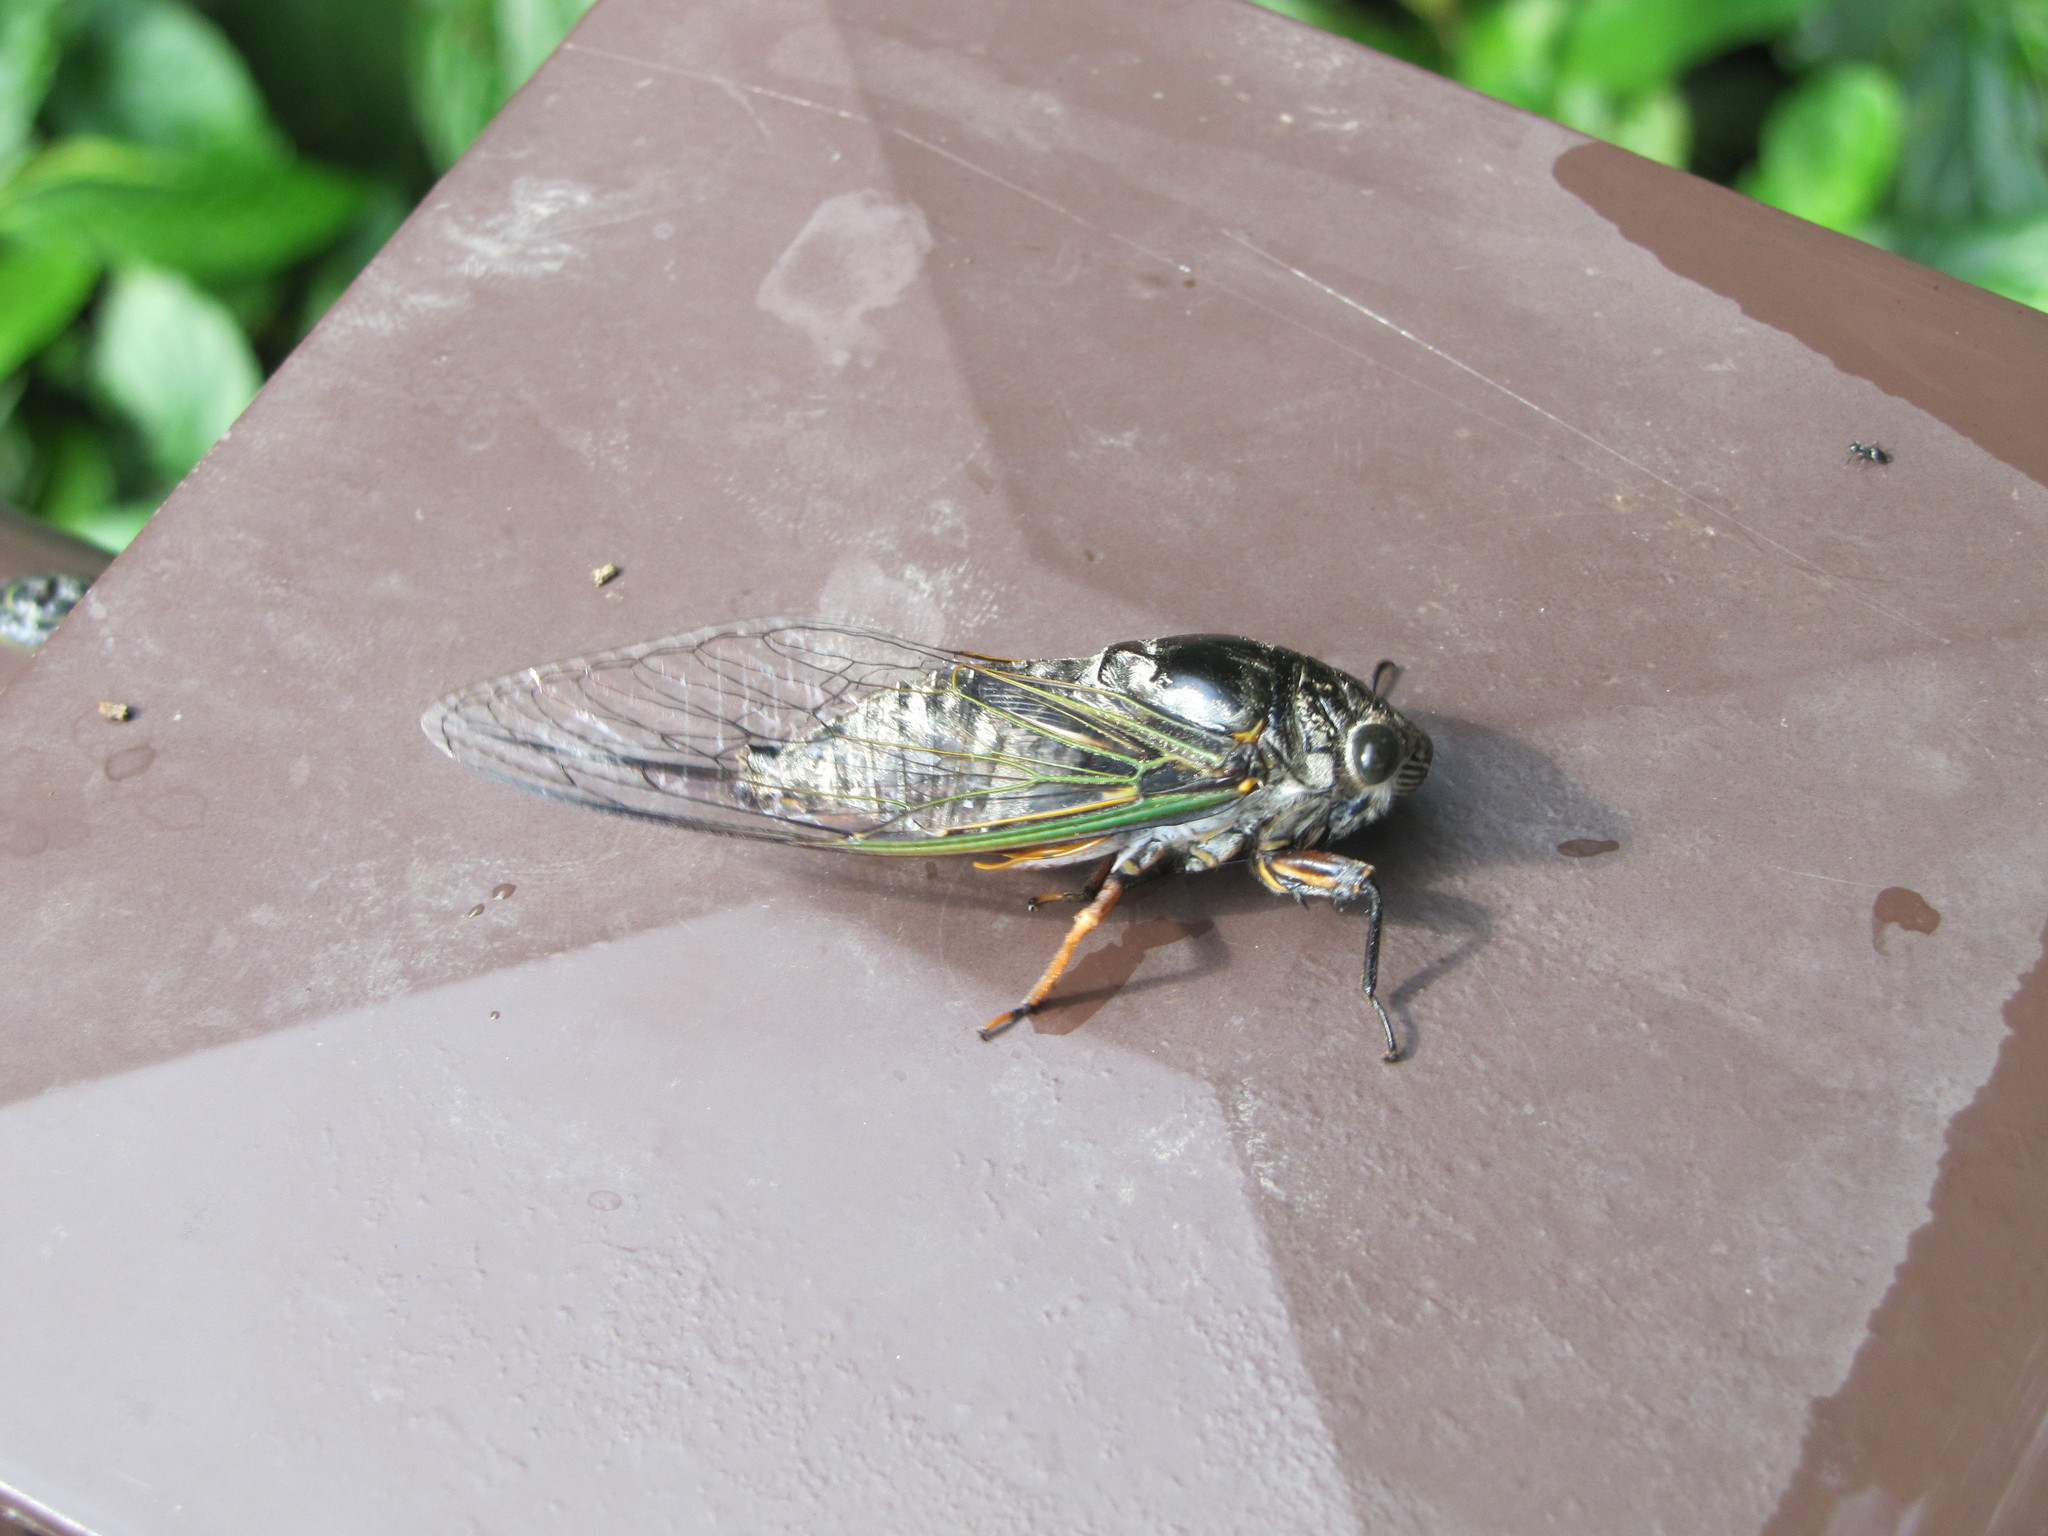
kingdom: Animalia
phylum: Arthropoda
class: Insecta
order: Hemiptera
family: Cicadidae
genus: Cryptotympana
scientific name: Cryptotympana takasagona
